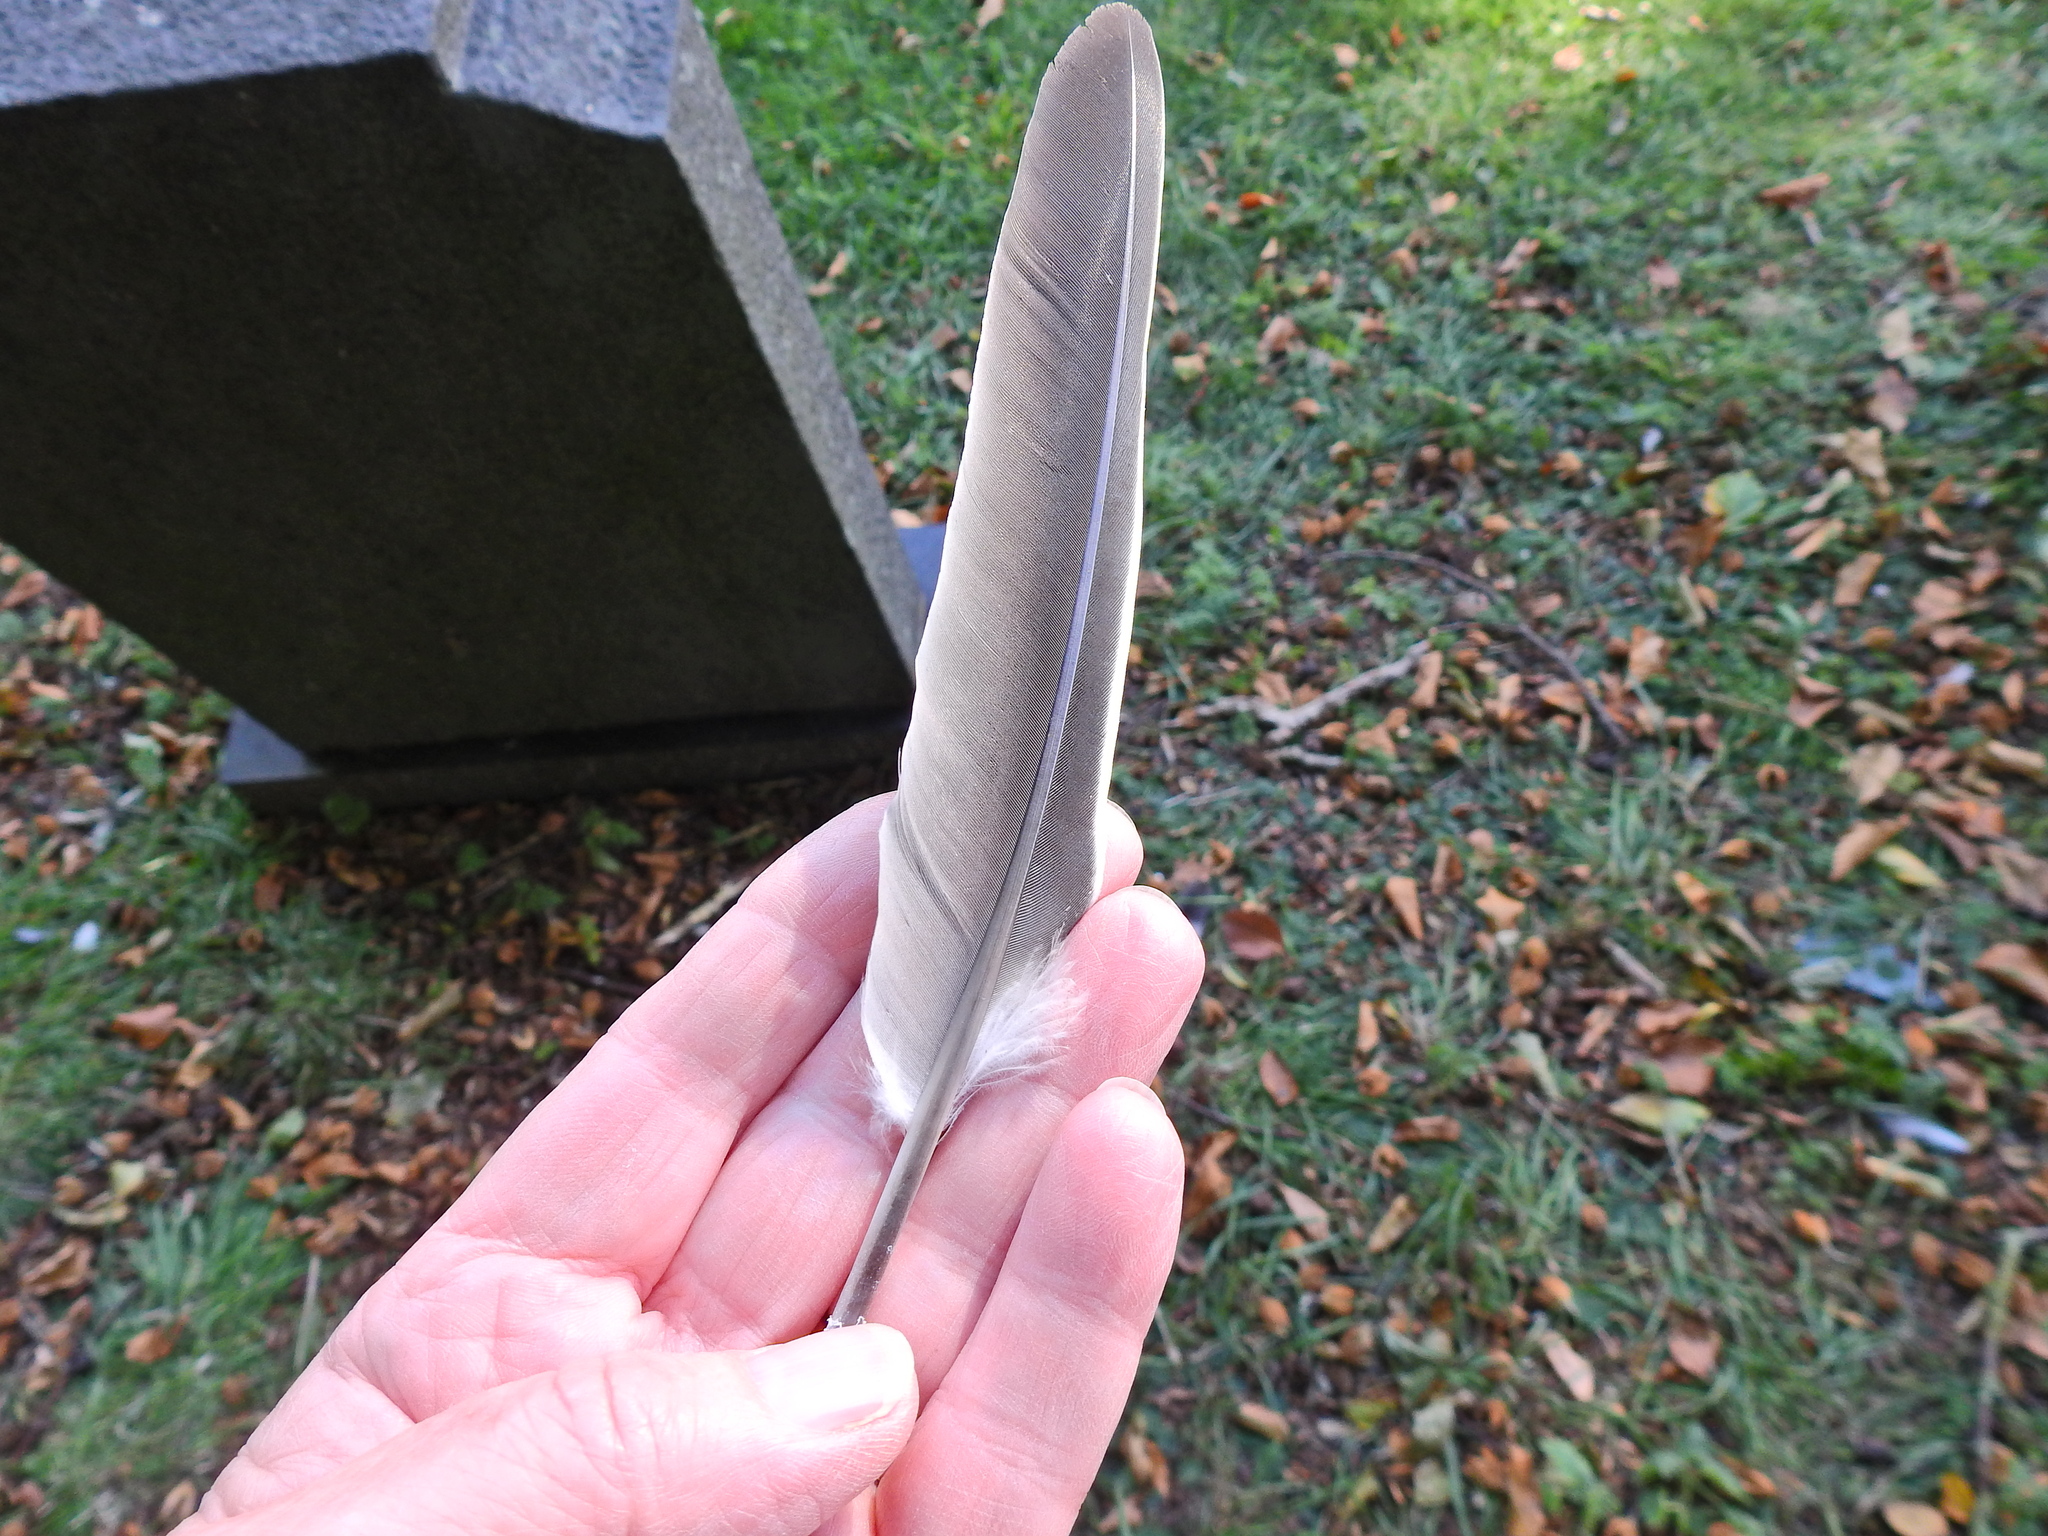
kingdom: Animalia
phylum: Chordata
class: Aves
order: Columbiformes
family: Columbidae
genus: Columba
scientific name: Columba palumbus
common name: Common wood pigeon
